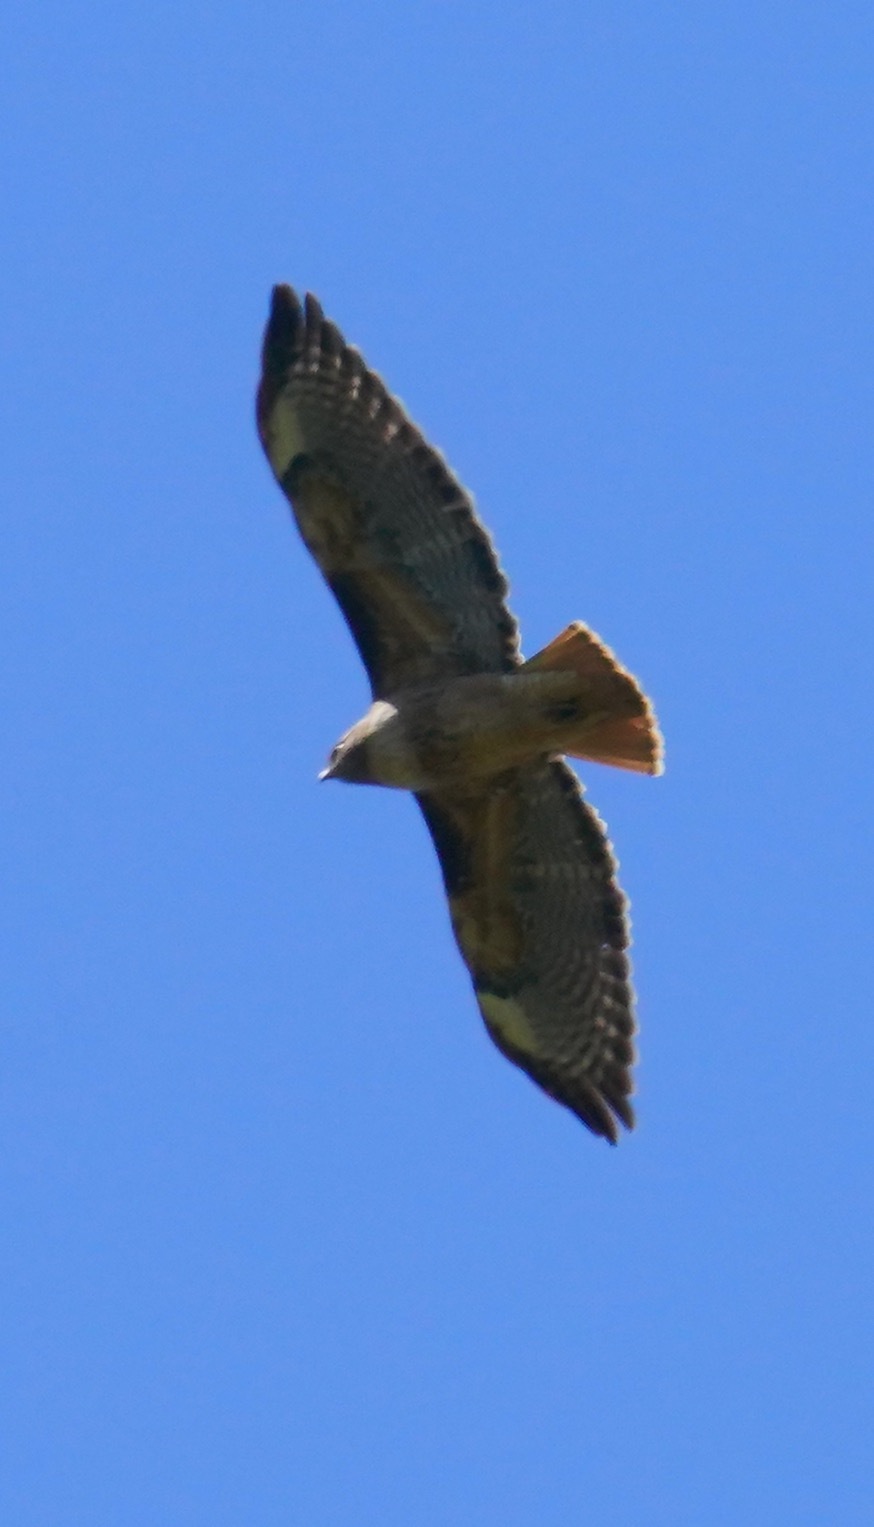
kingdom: Animalia
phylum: Chordata
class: Aves
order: Accipitriformes
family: Accipitridae
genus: Buteo
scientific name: Buteo jamaicensis
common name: Red-tailed hawk
